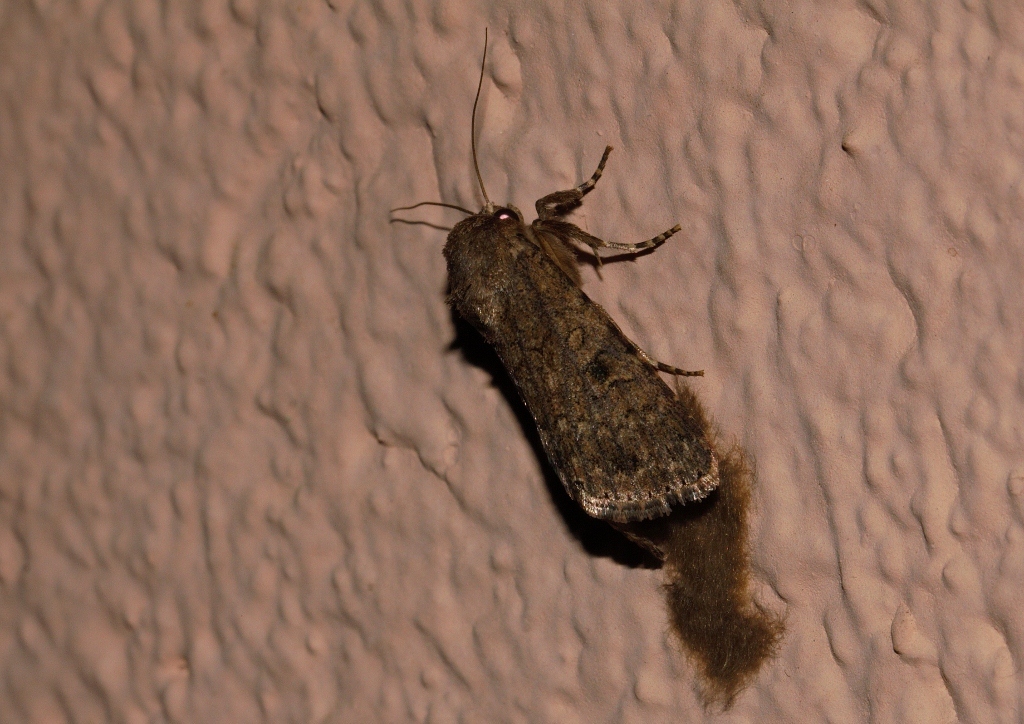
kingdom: Animalia
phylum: Arthropoda
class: Insecta
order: Lepidoptera
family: Noctuidae
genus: Spodoptera
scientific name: Spodoptera cilium
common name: Dark mottled willow
